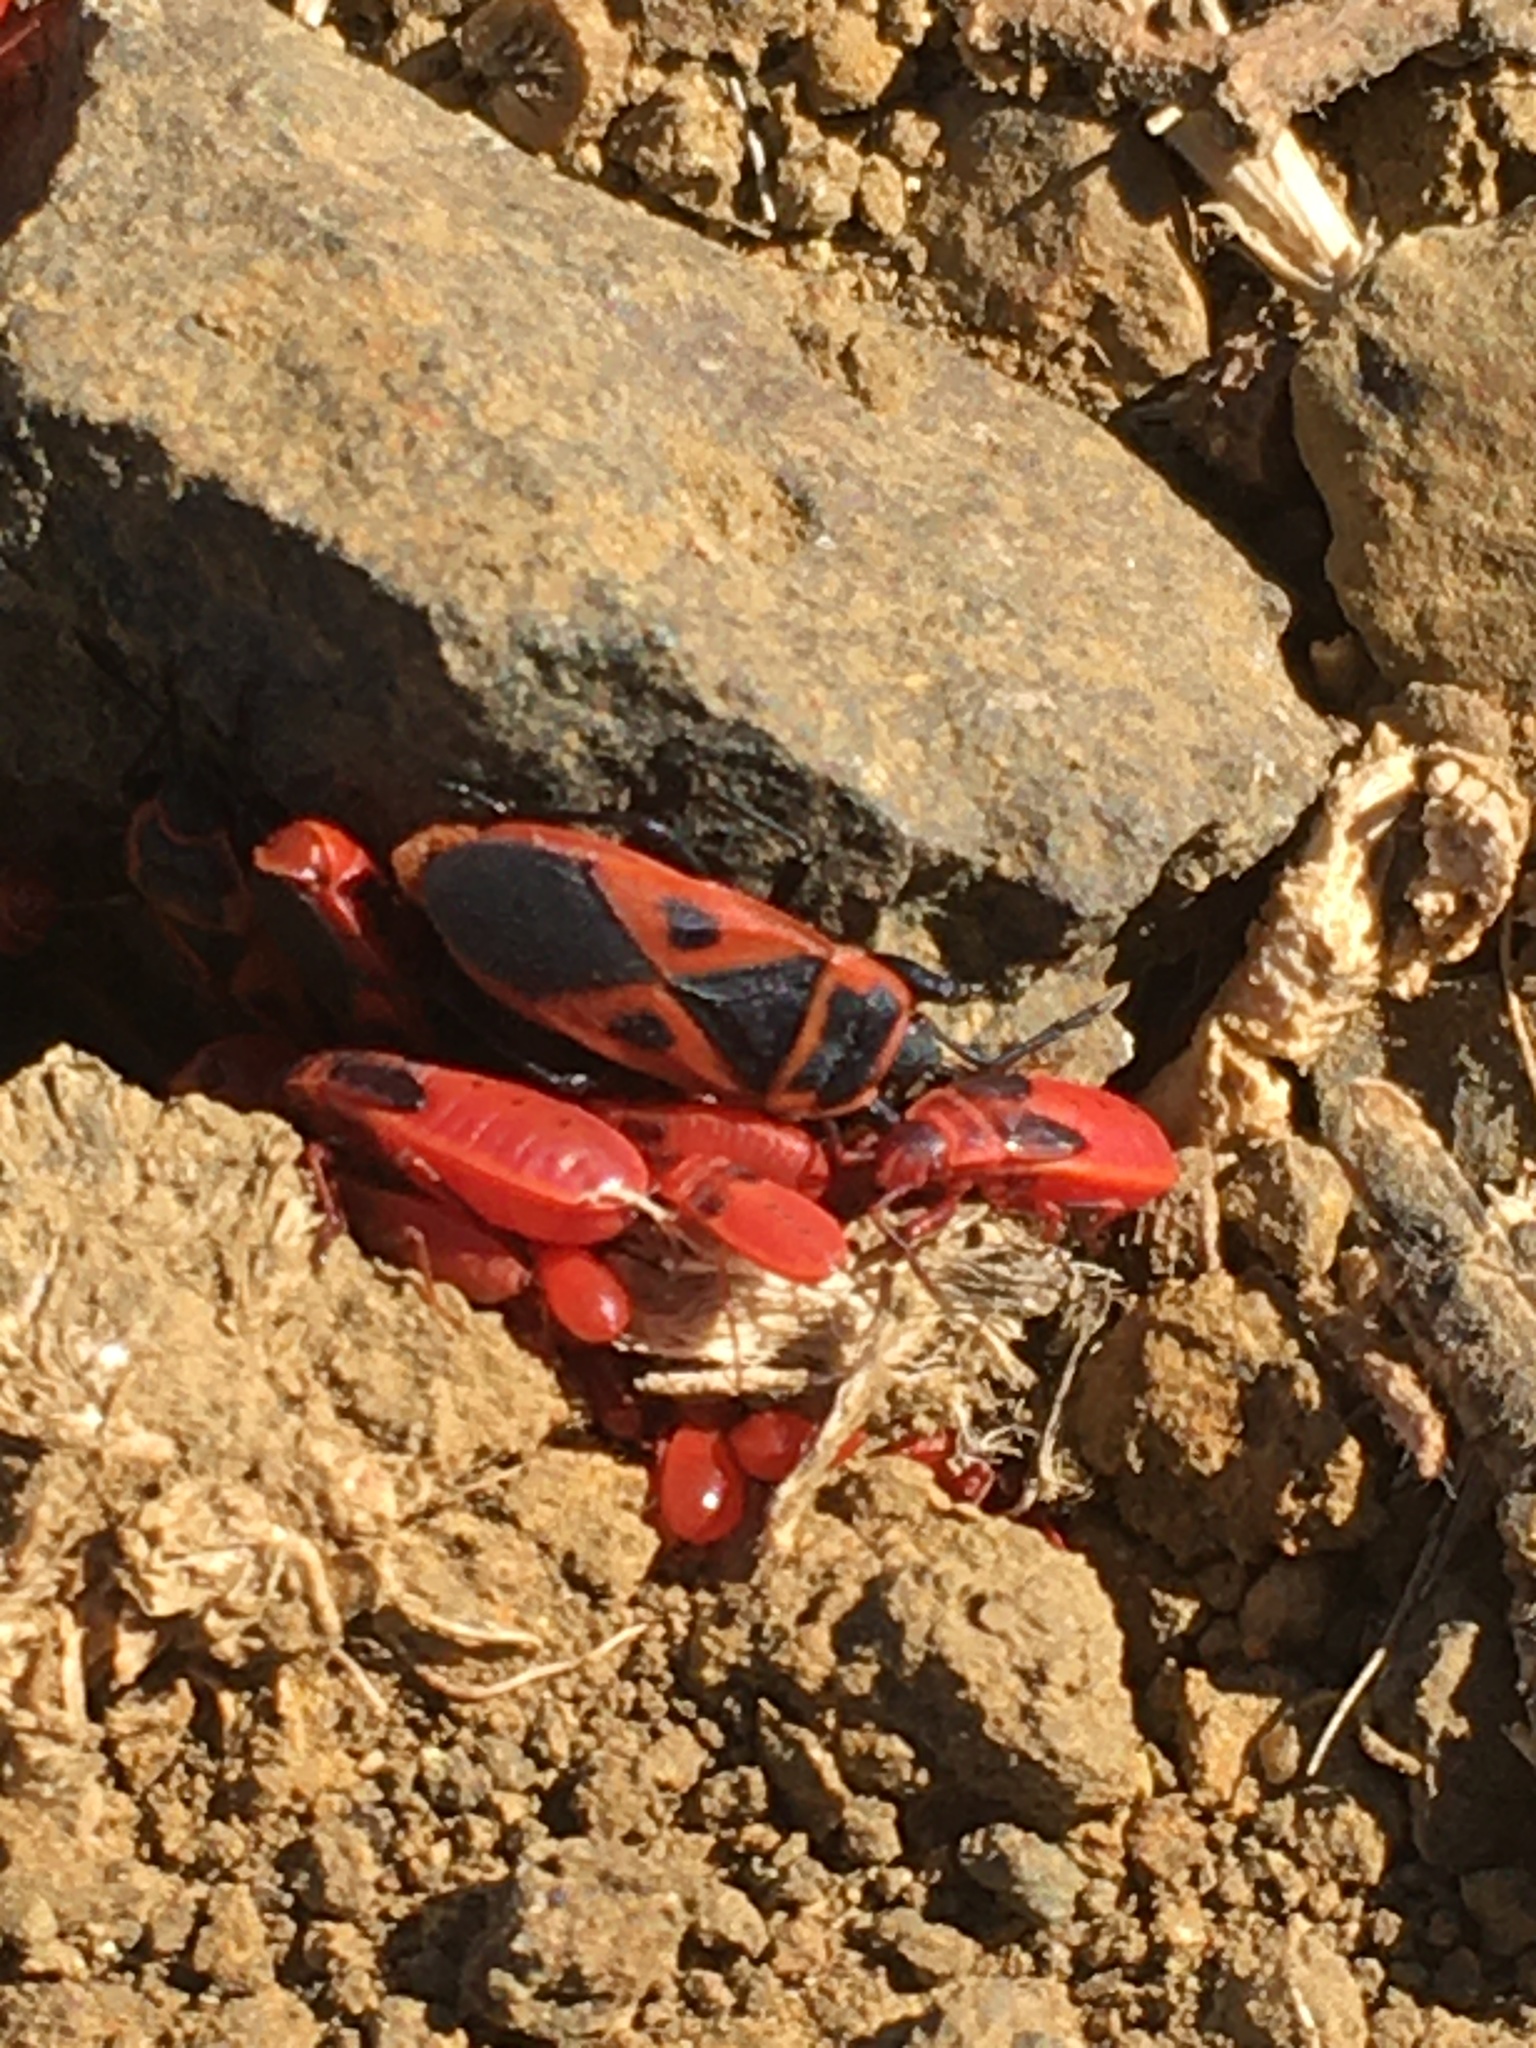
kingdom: Animalia
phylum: Arthropoda
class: Insecta
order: Hemiptera
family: Pyrrhocoridae
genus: Scantius
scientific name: Scantius aegyptius
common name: Red bug
